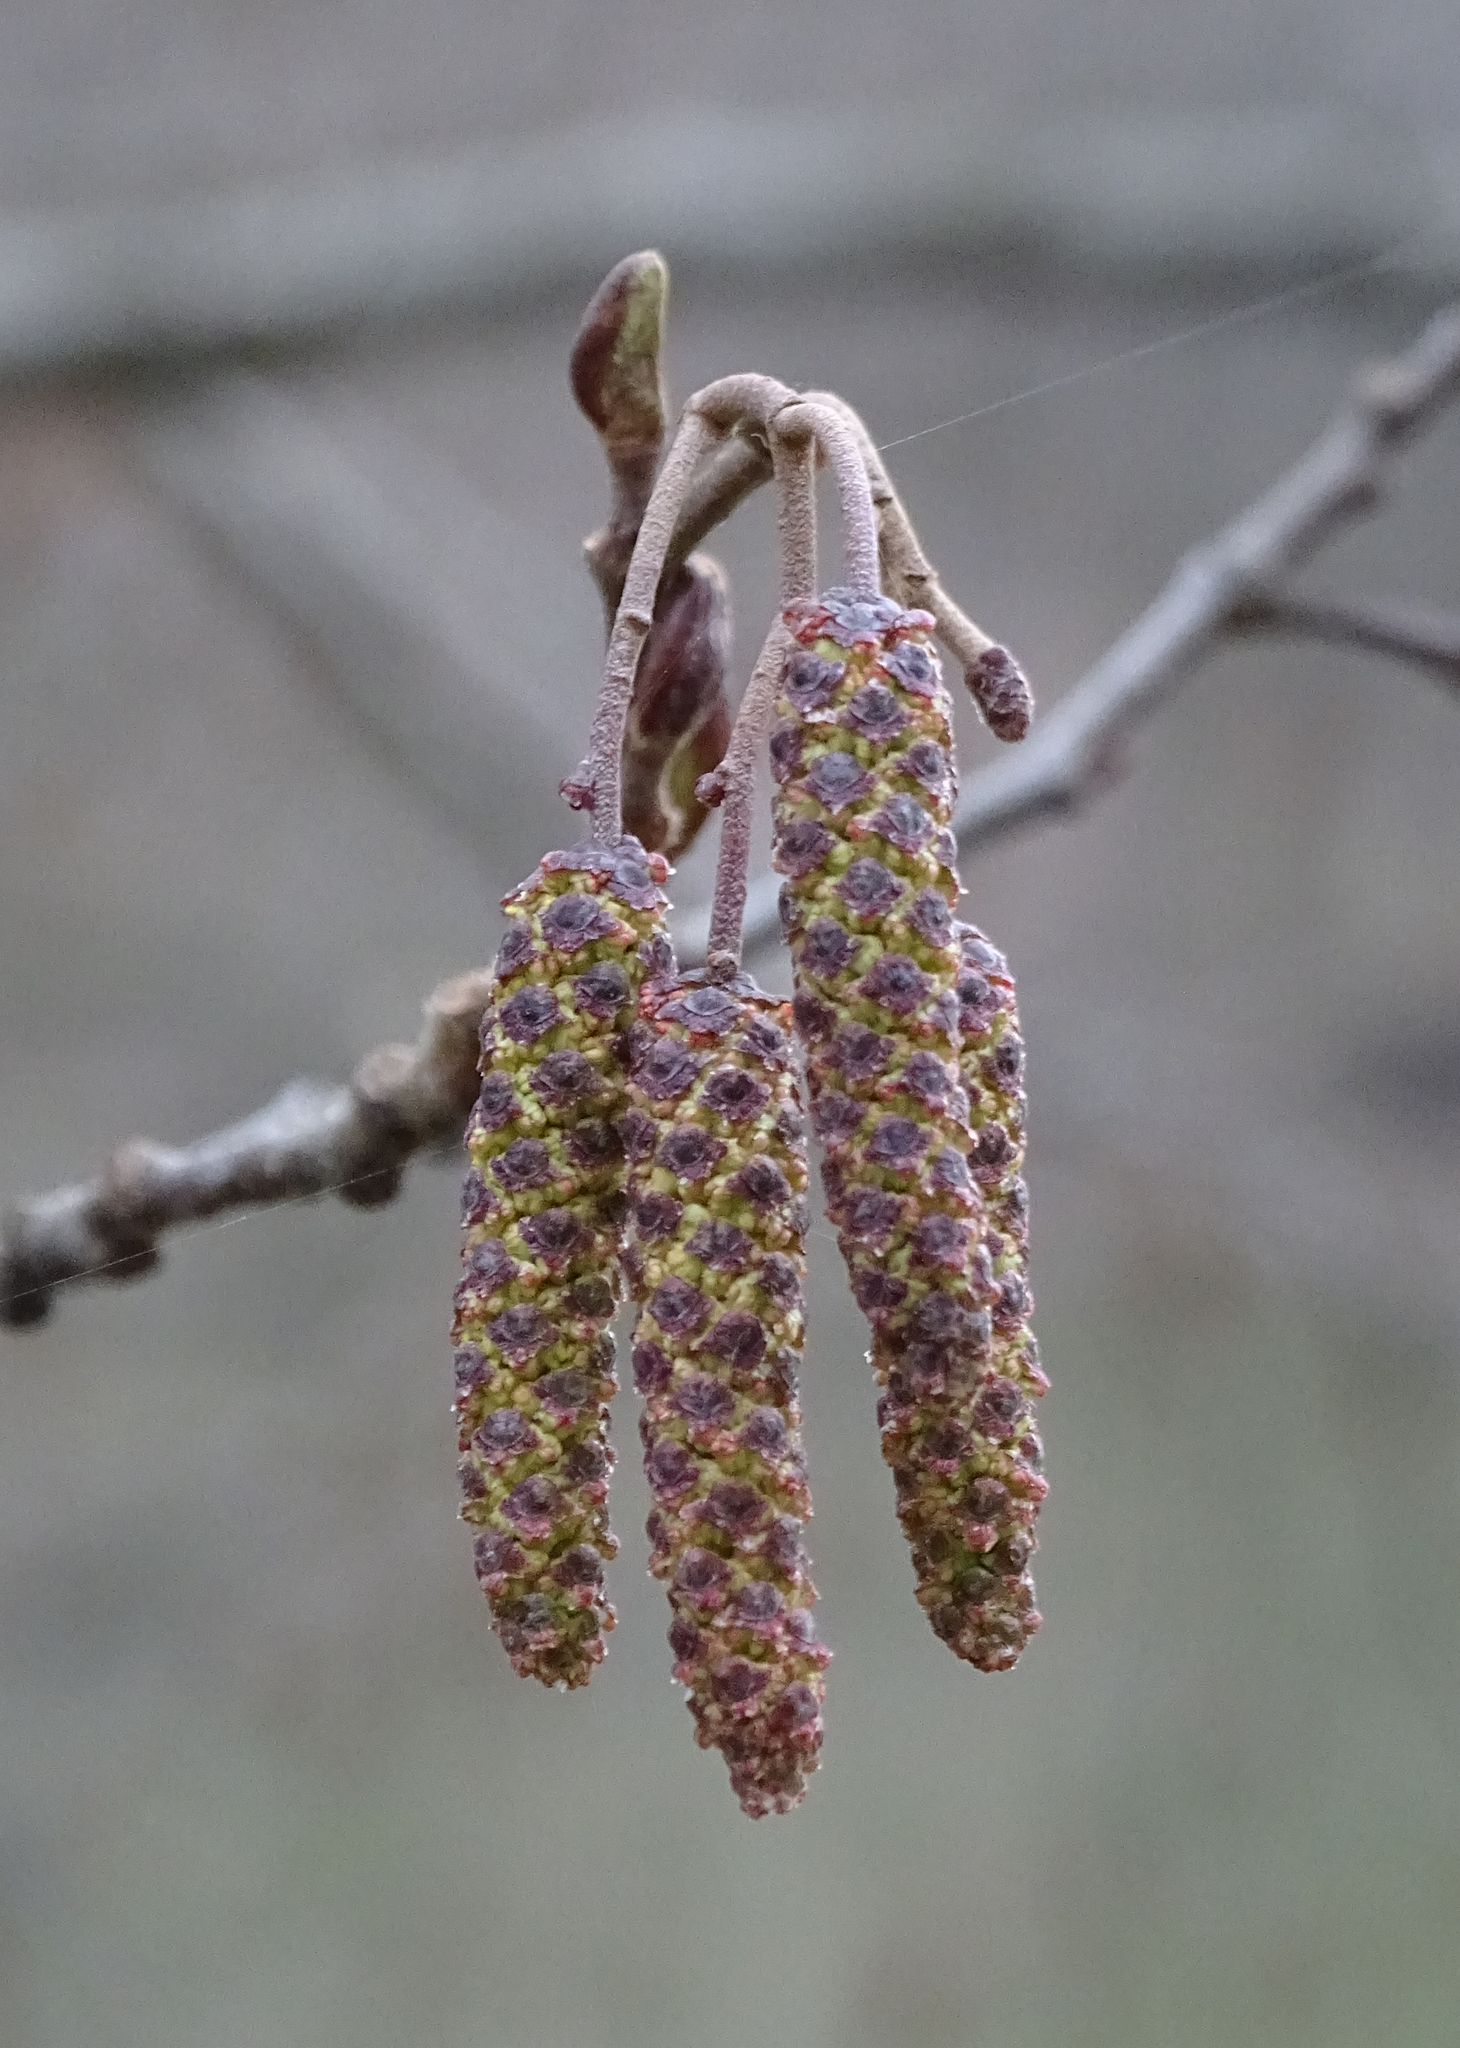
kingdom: Plantae
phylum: Tracheophyta
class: Magnoliopsida
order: Fagales
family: Betulaceae
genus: Alnus
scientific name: Alnus glutinosa
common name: Black alder
